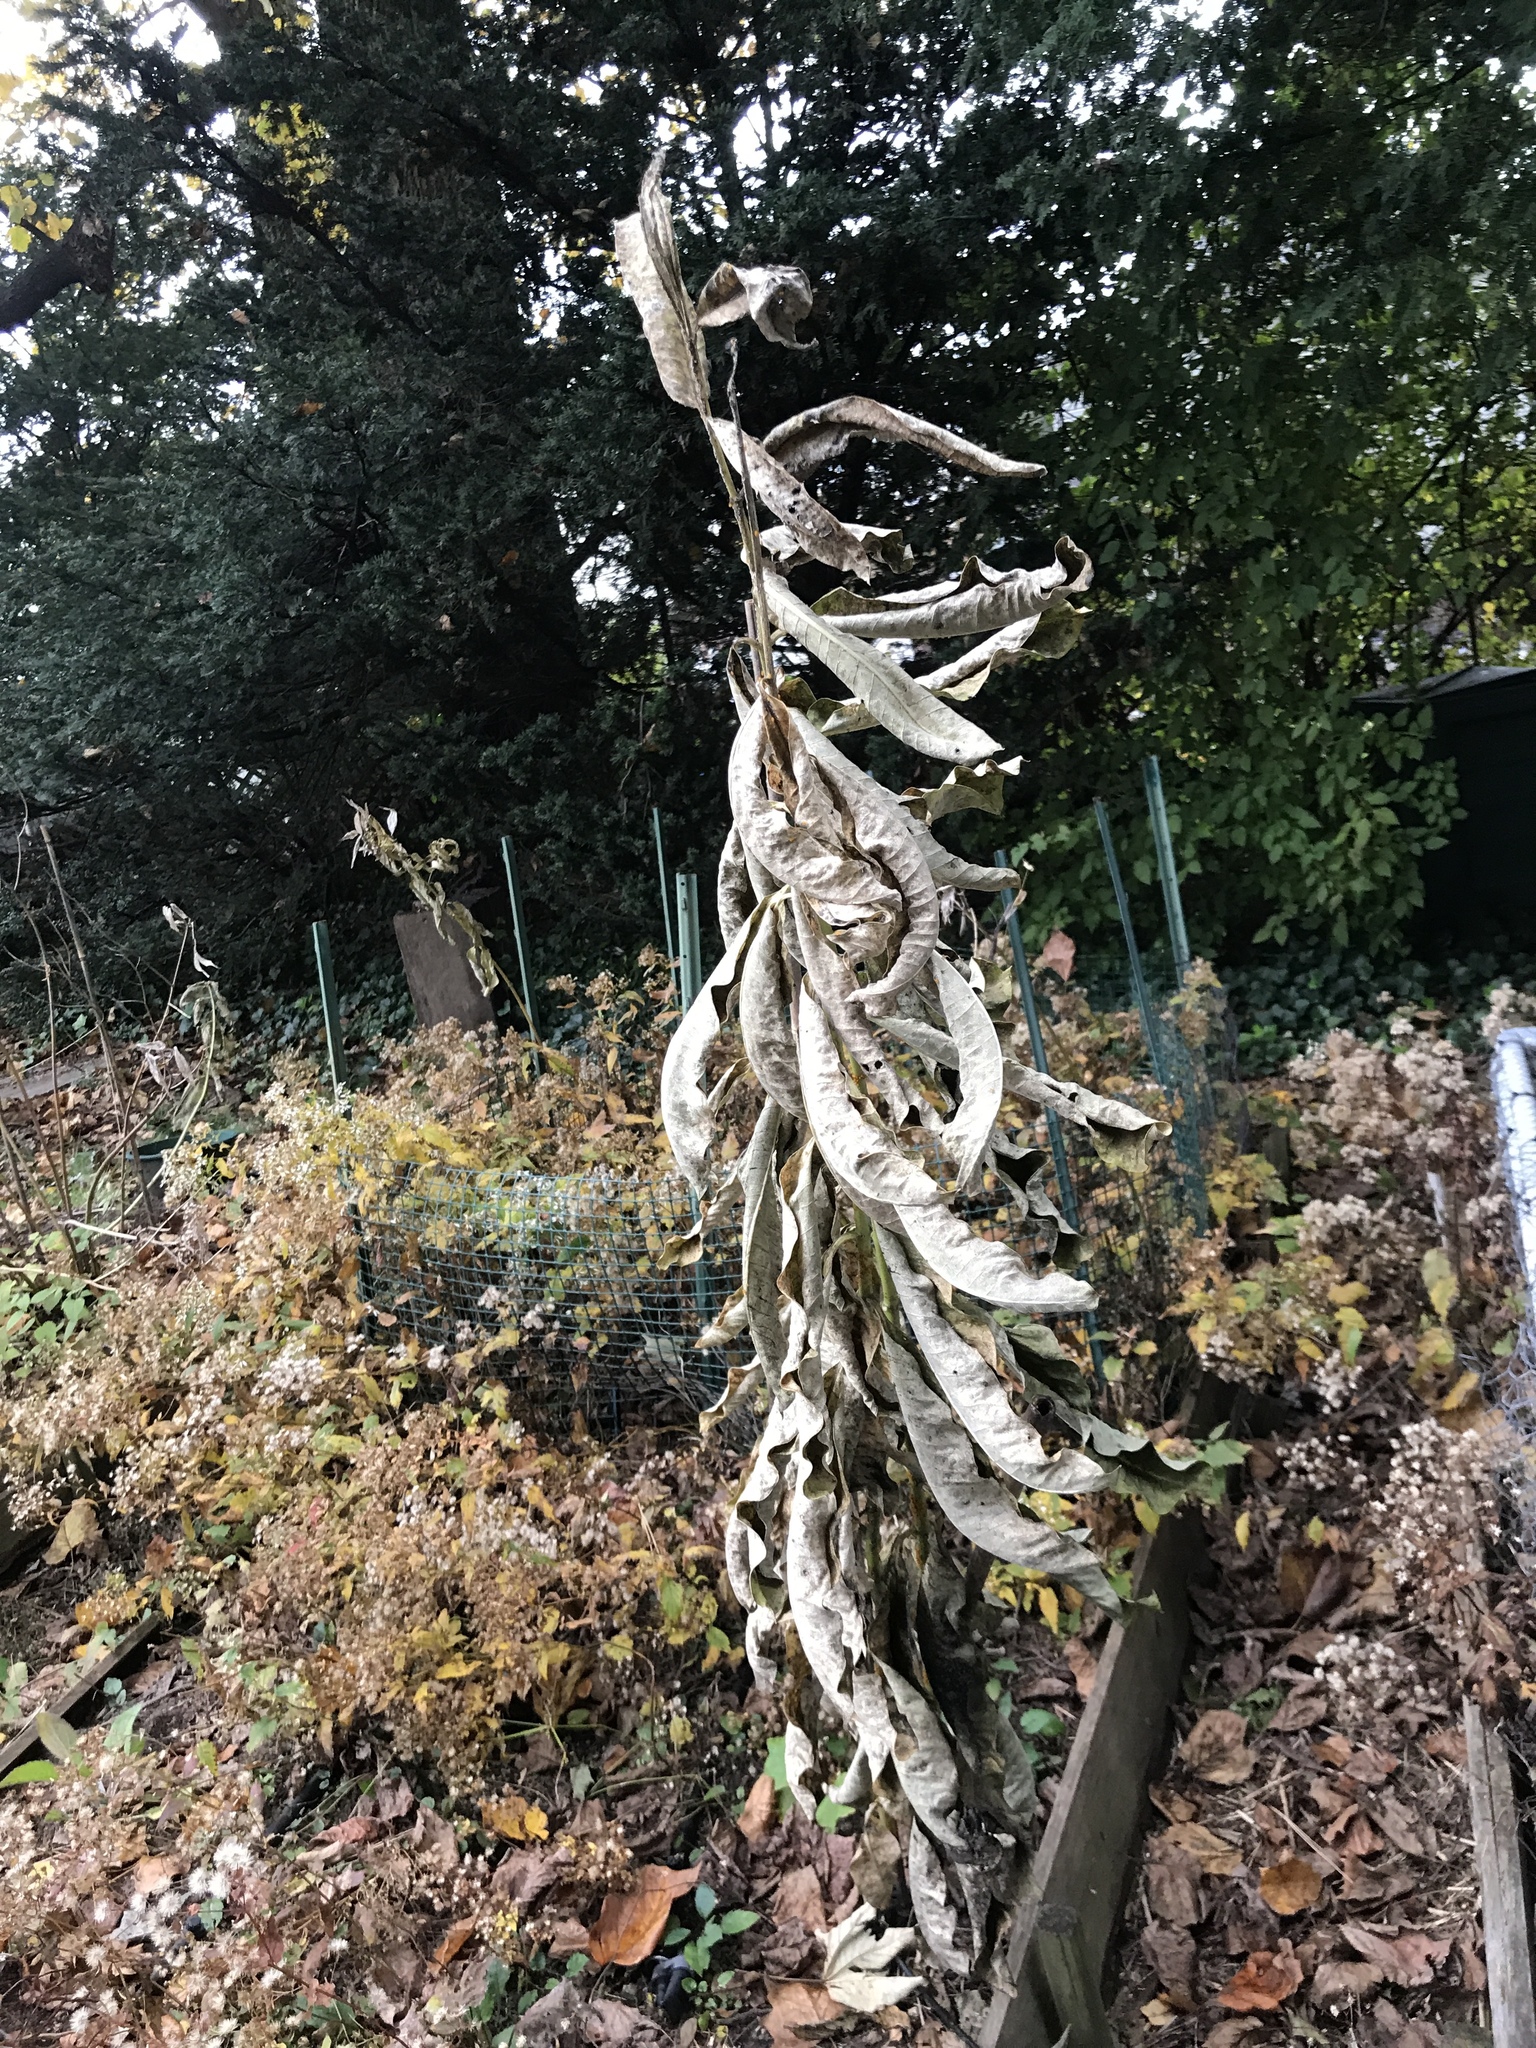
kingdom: Plantae
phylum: Tracheophyta
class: Magnoliopsida
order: Gentianales
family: Apocynaceae
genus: Asclepias
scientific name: Asclepias syriaca
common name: Common milkweed
